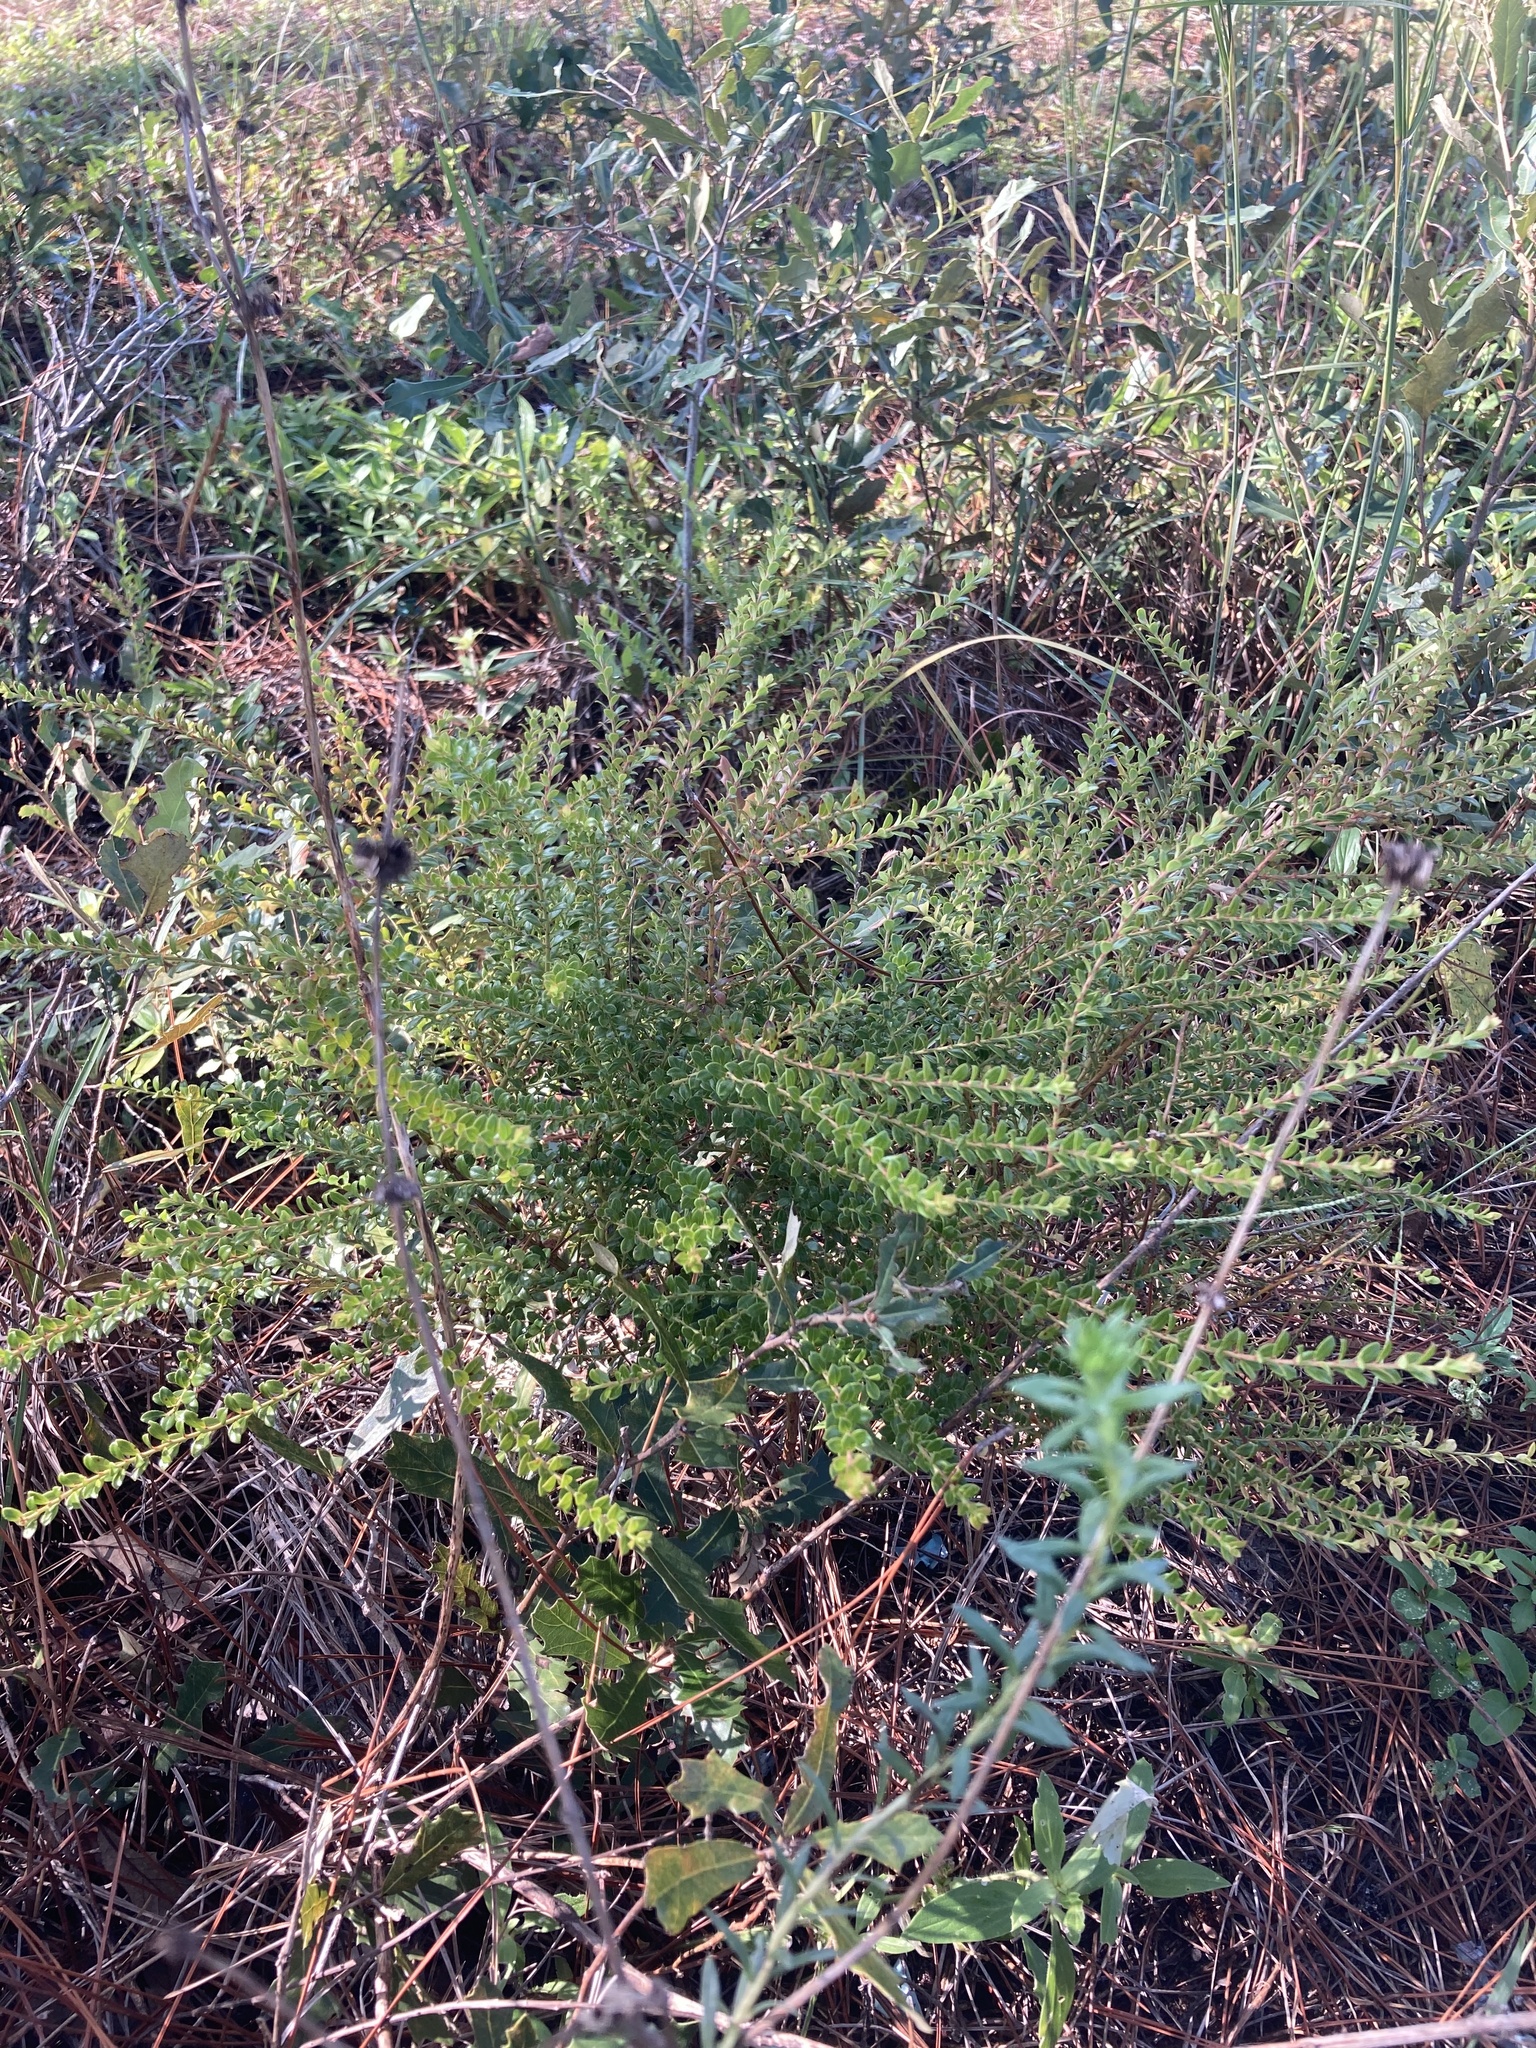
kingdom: Plantae
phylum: Tracheophyta
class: Magnoliopsida
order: Ericales
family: Ericaceae
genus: Vaccinium
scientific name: Vaccinium myrsinites
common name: Evergreen blueberry
